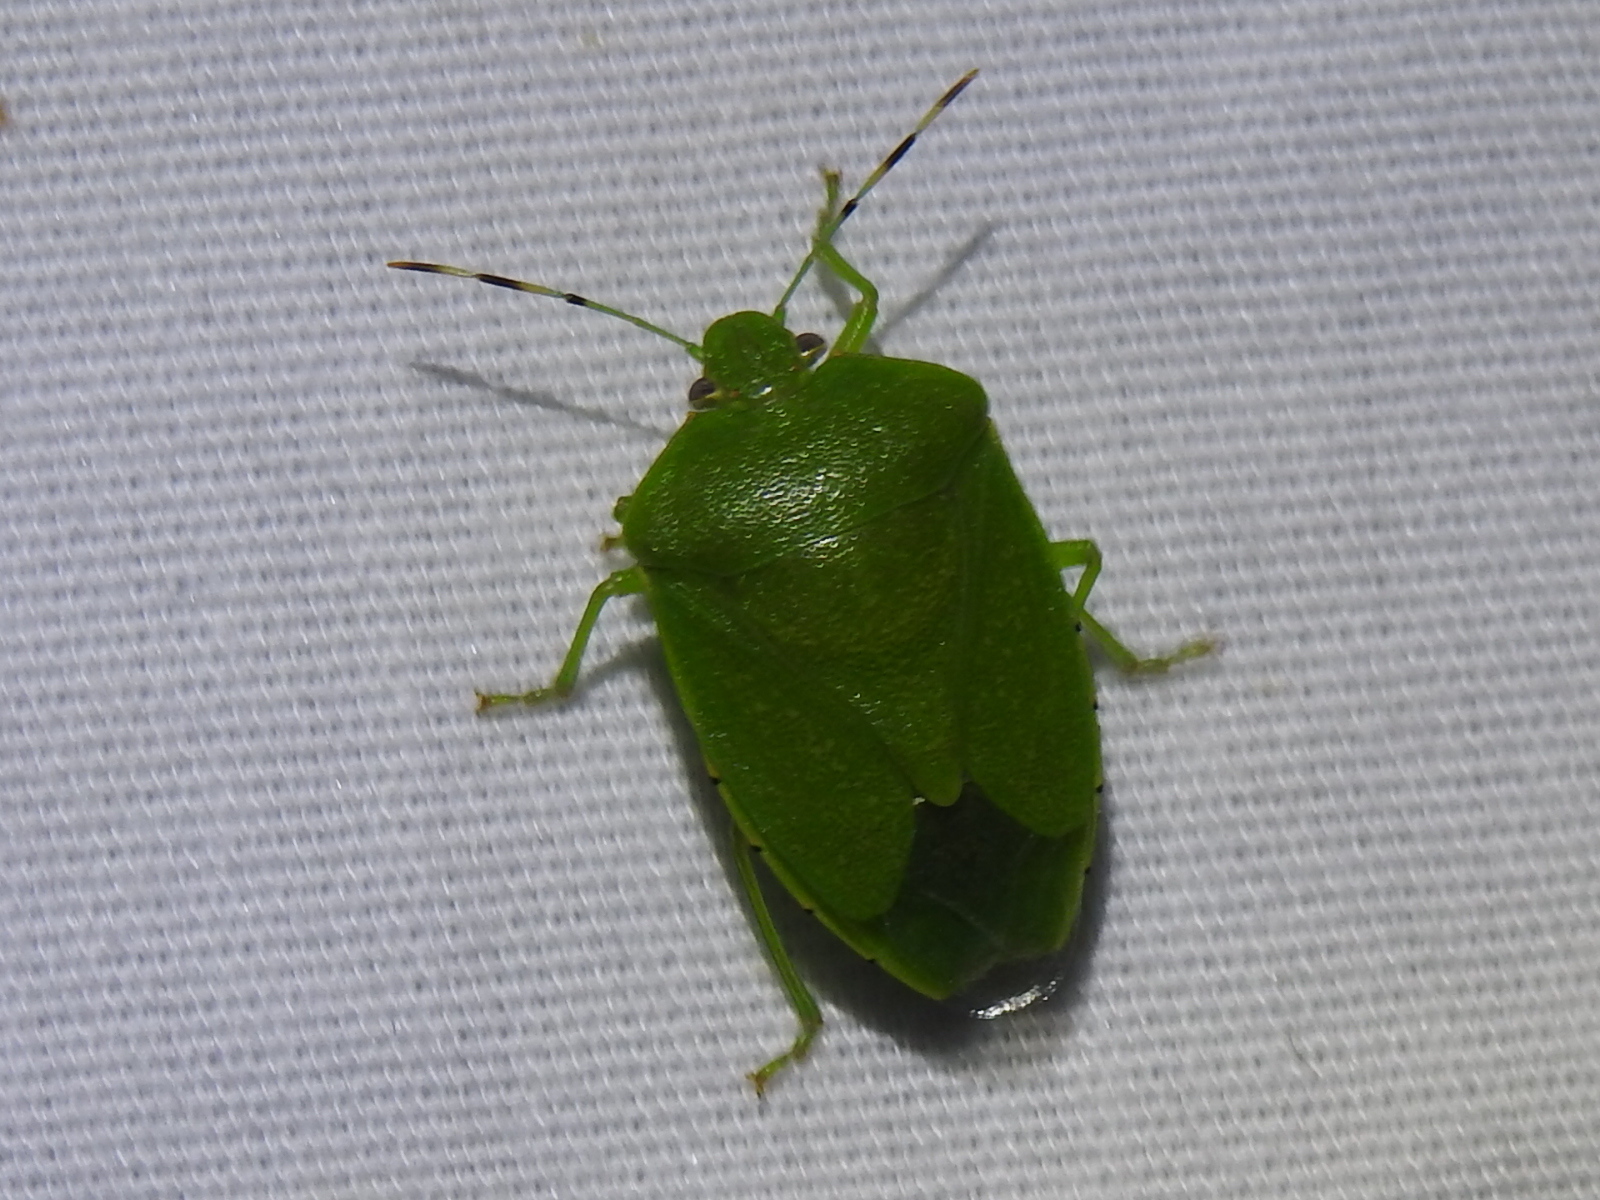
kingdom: Animalia
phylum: Arthropoda
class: Insecta
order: Hemiptera
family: Pentatomidae
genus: Chinavia
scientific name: Chinavia hilaris
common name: Green stink bug
